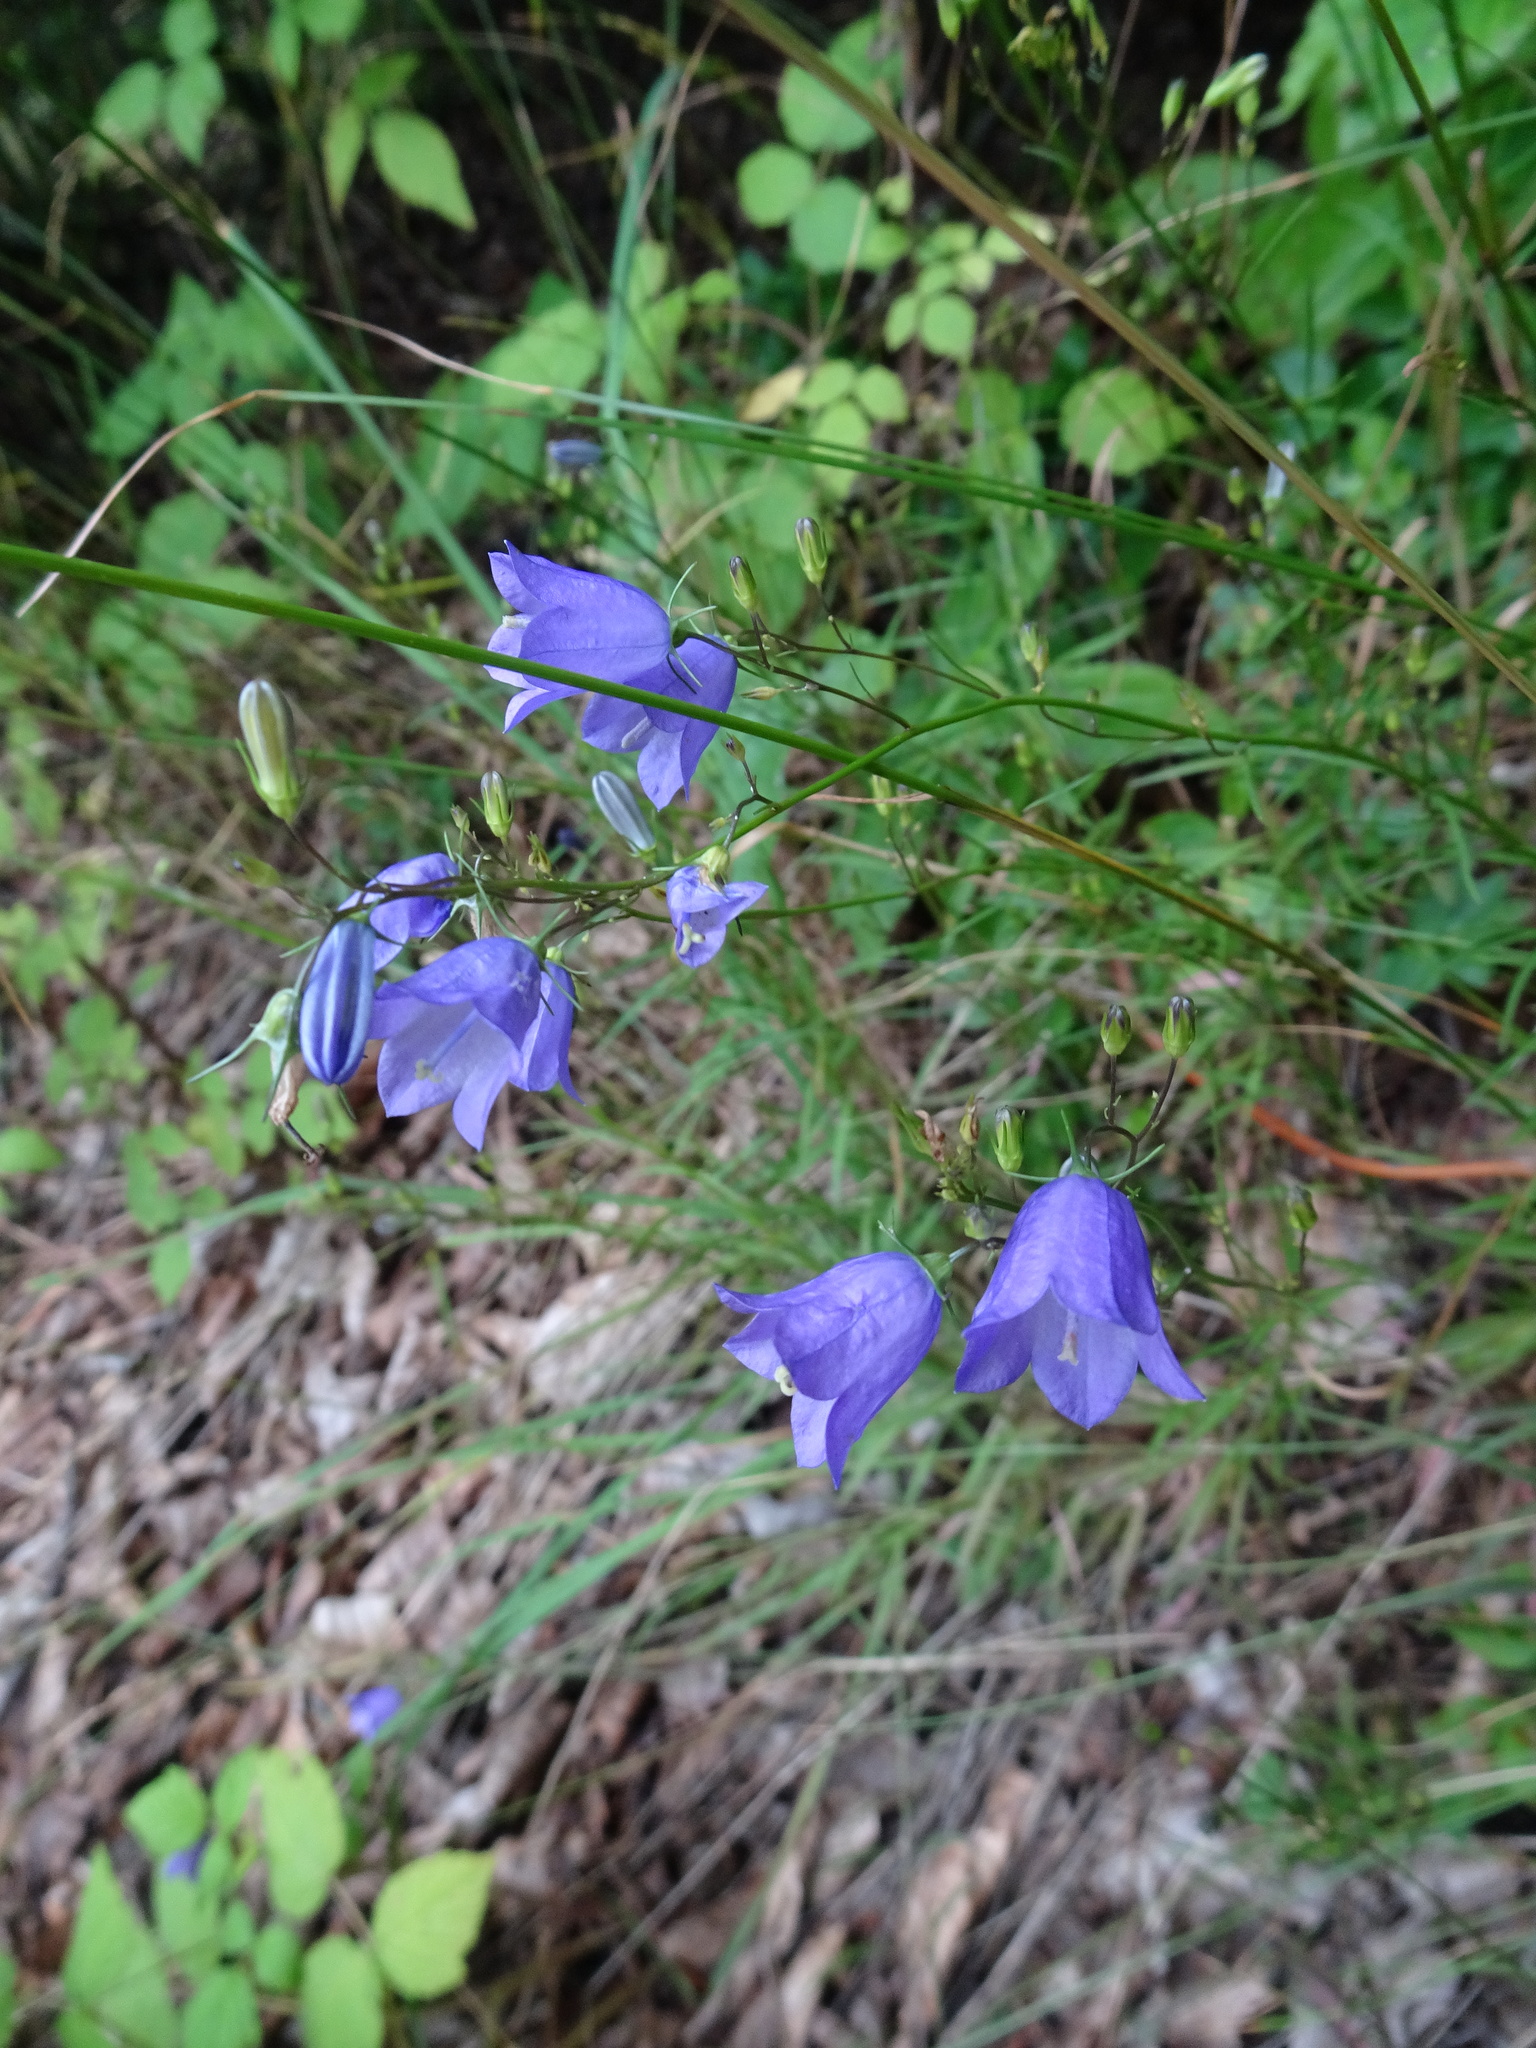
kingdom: Plantae
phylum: Tracheophyta
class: Magnoliopsida
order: Asterales
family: Campanulaceae
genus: Campanula
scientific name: Campanula rotundifolia
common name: Harebell
